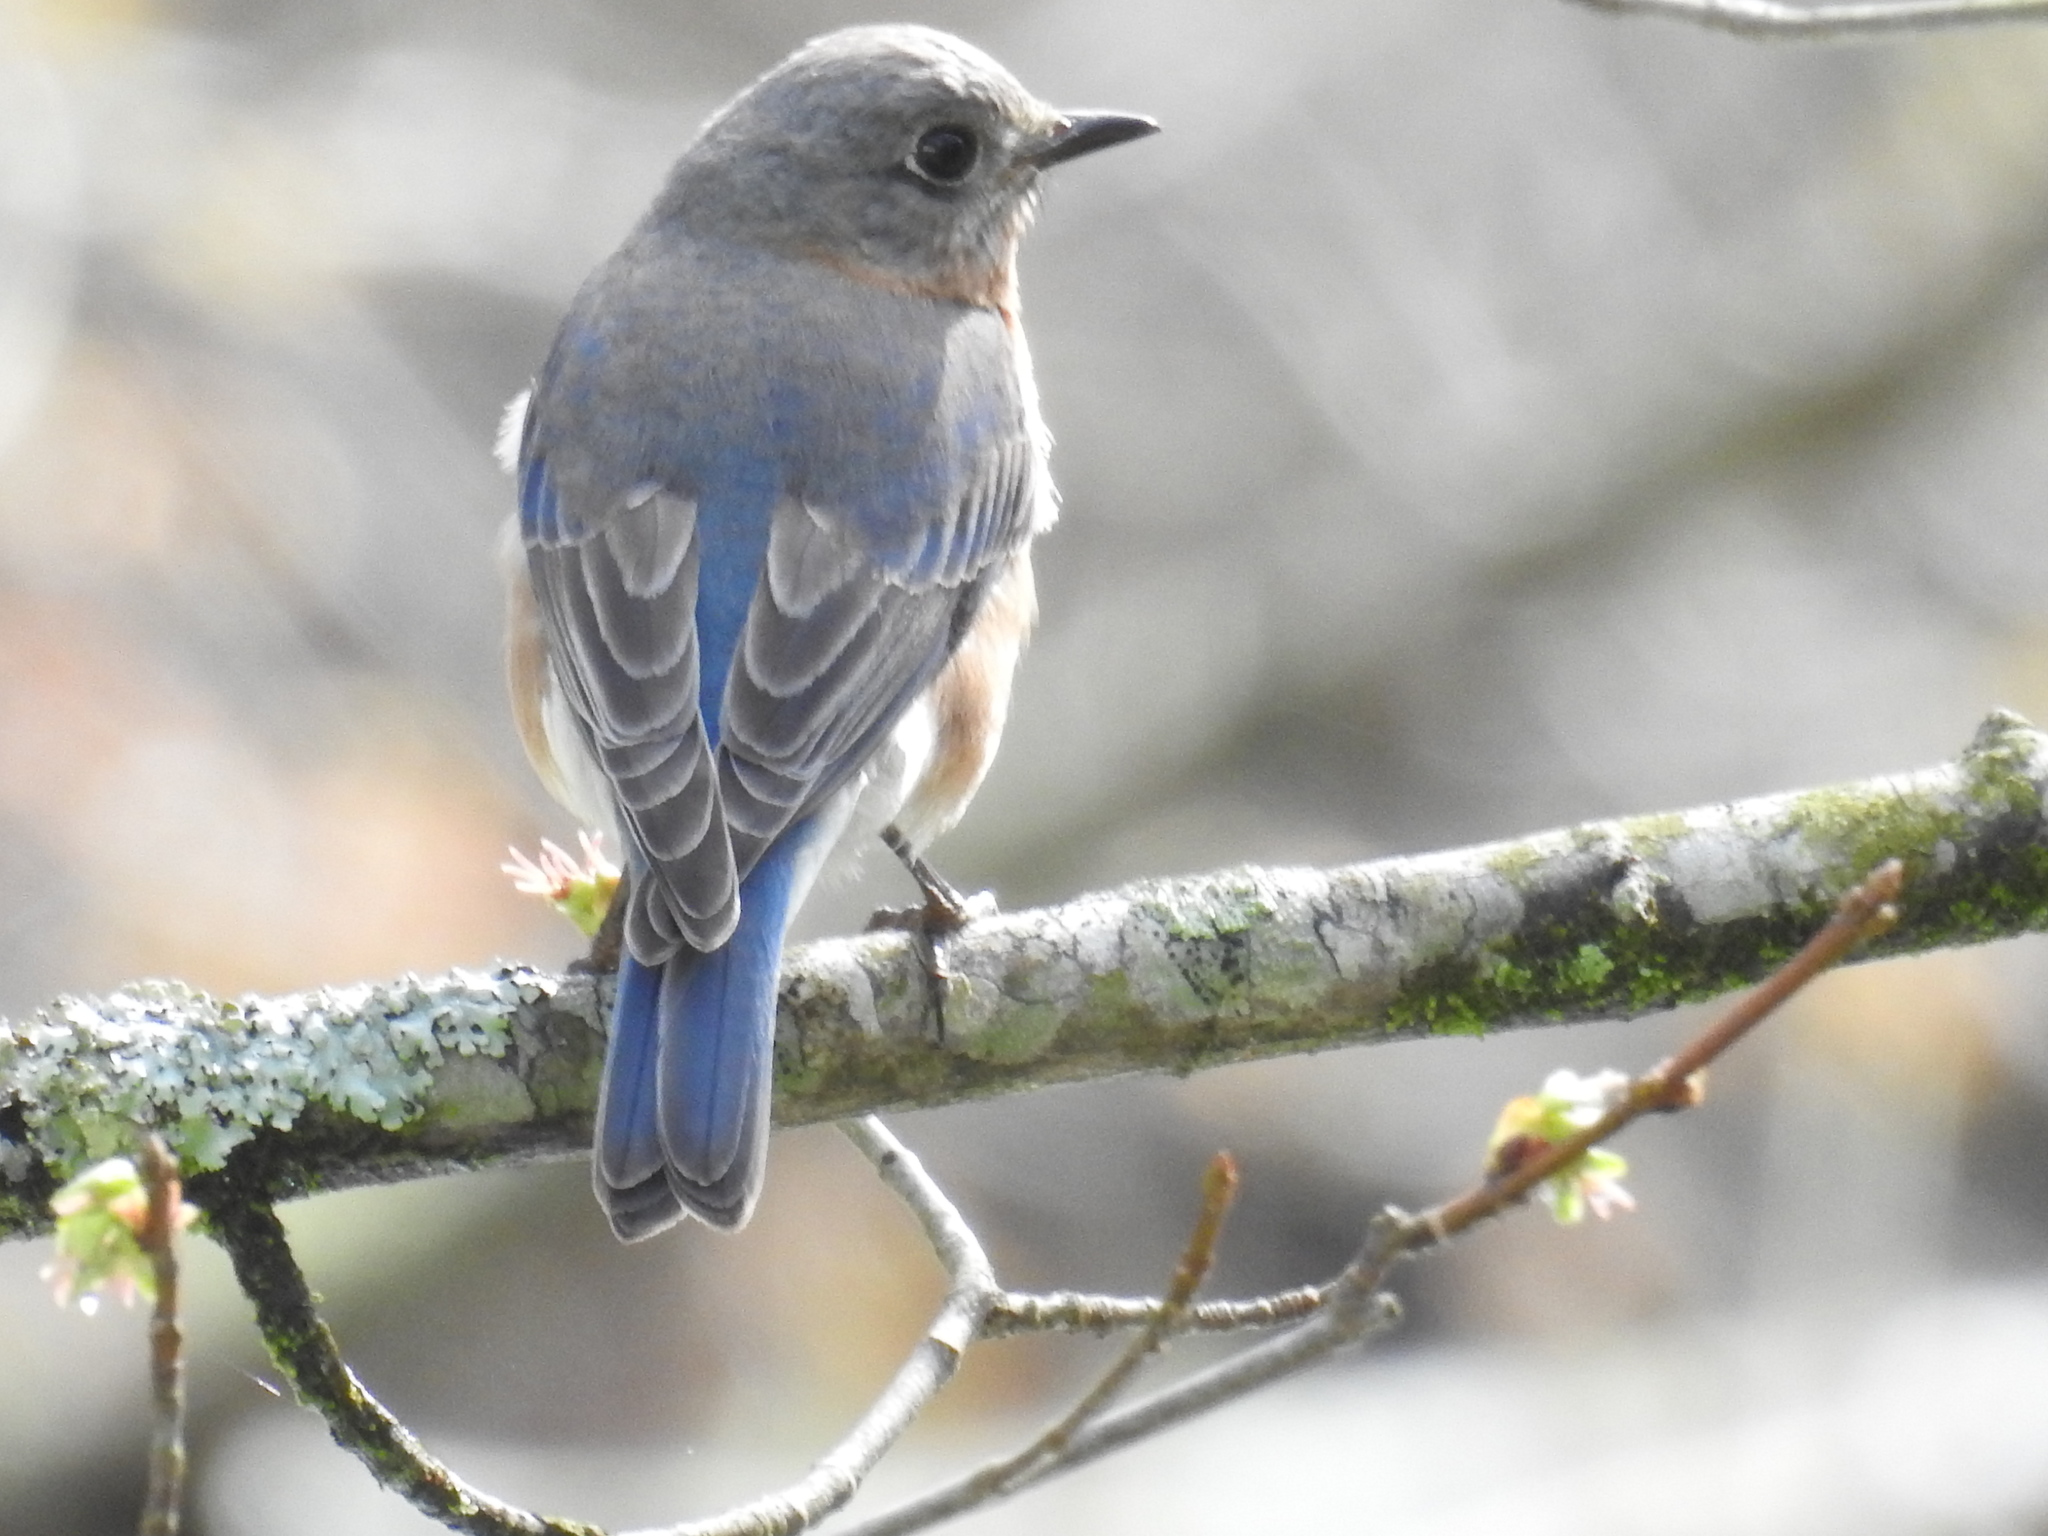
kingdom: Animalia
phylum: Chordata
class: Aves
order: Passeriformes
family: Turdidae
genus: Sialia
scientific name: Sialia sialis
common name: Eastern bluebird
